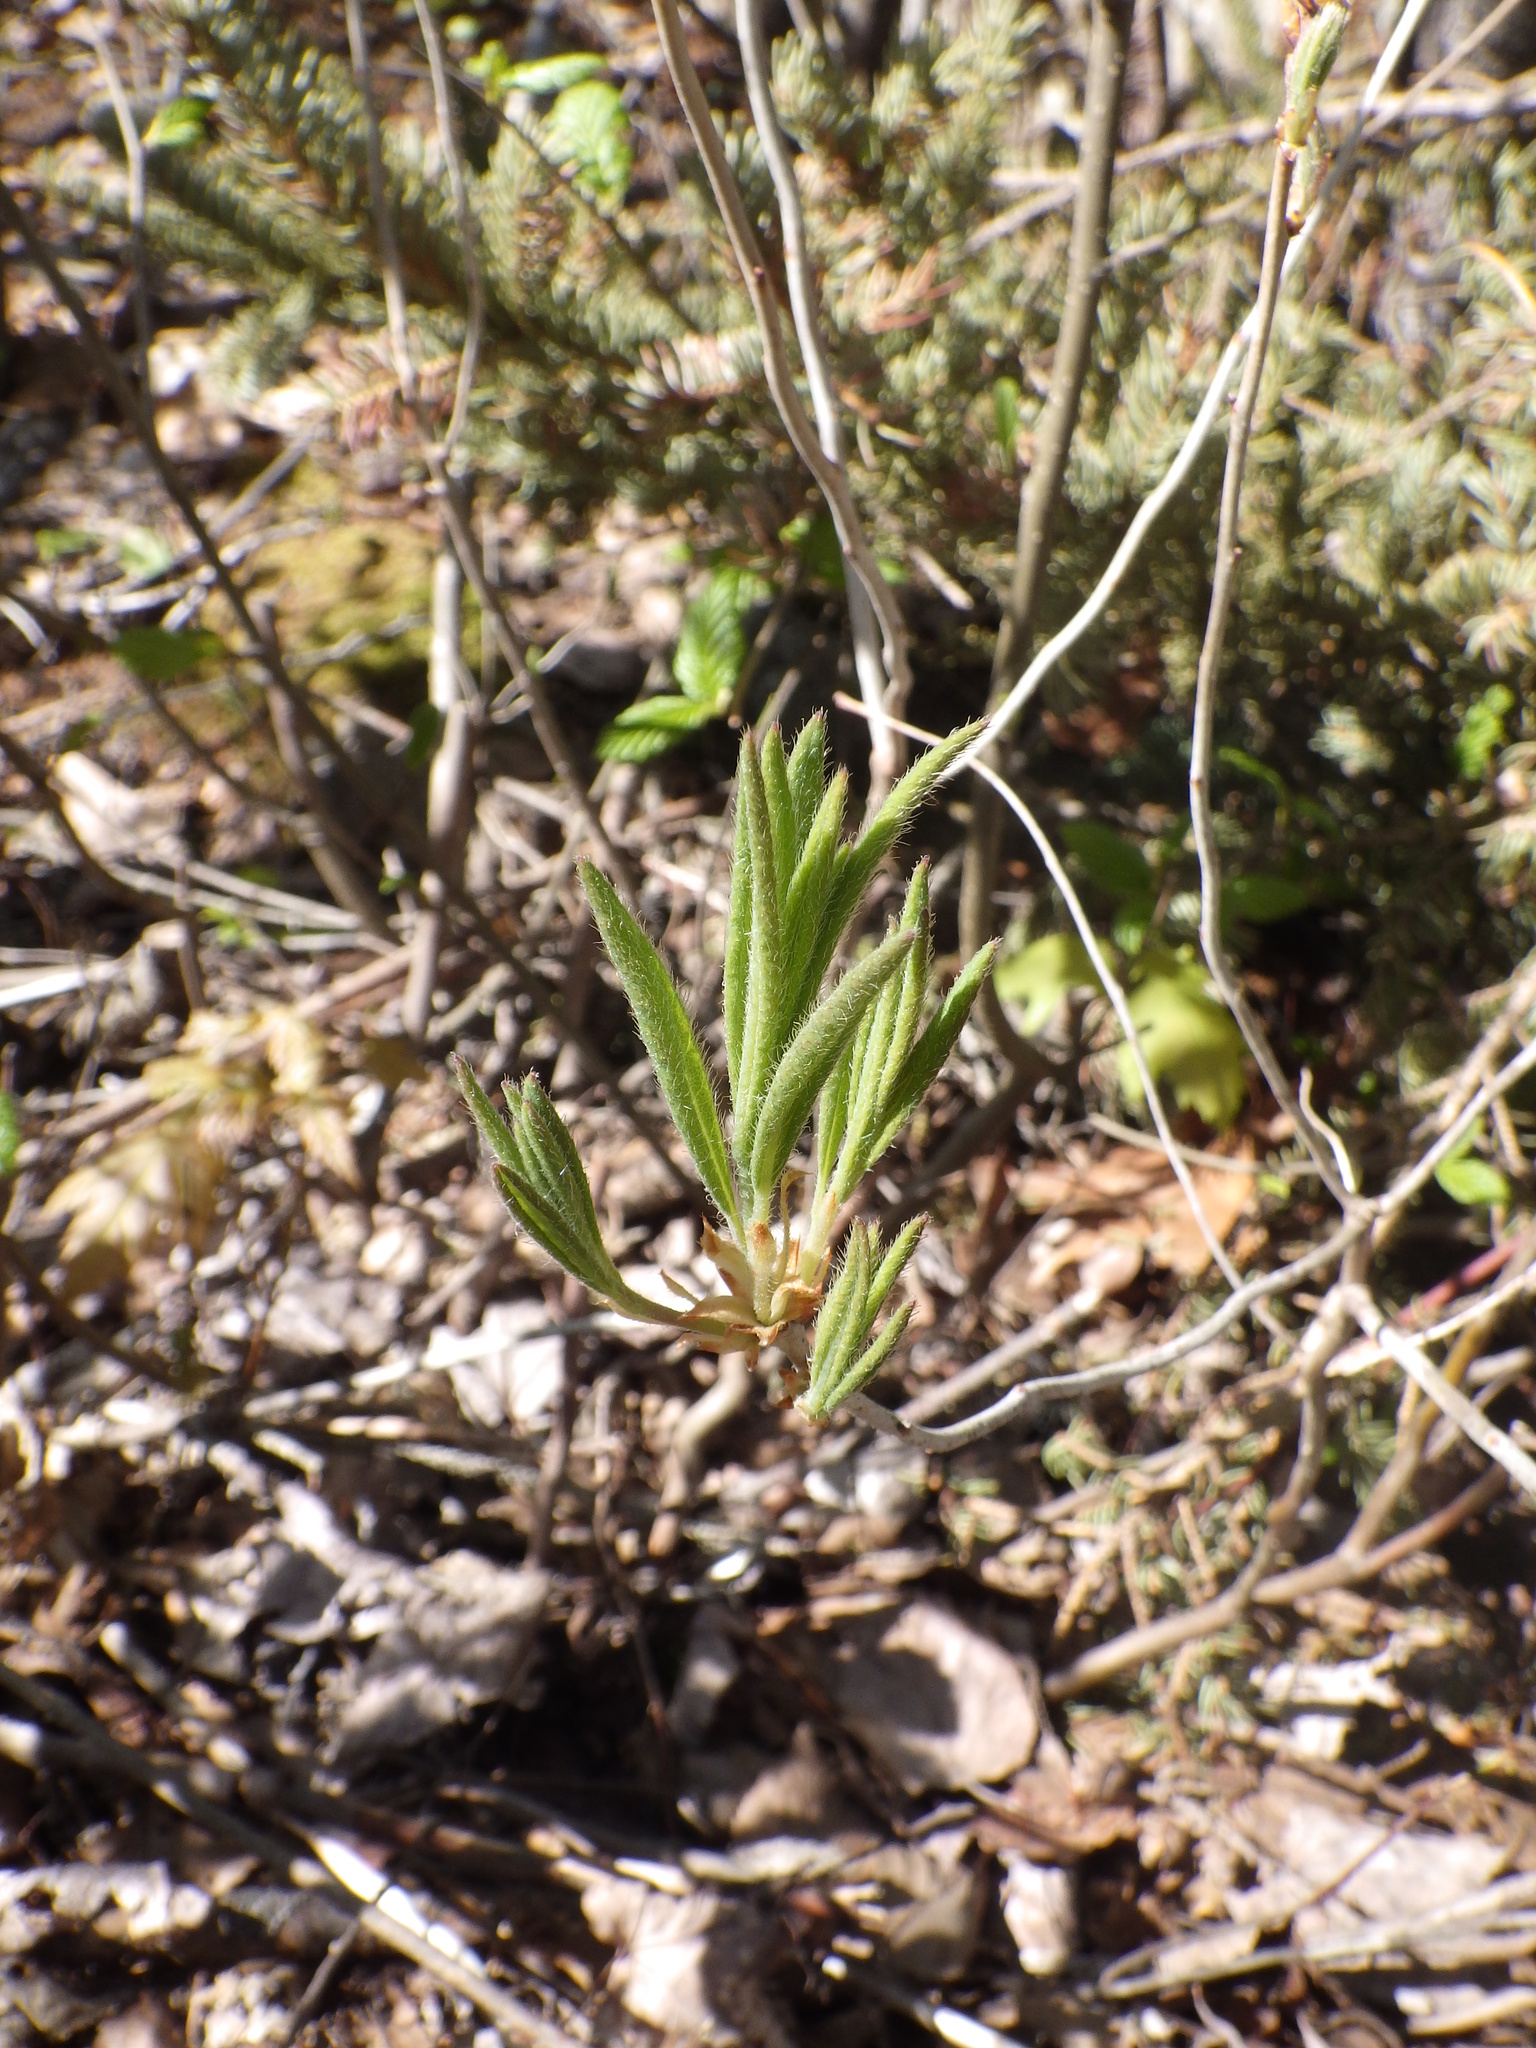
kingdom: Plantae
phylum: Tracheophyta
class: Magnoliopsida
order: Ericales
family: Ericaceae
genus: Rhododendron
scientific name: Rhododendron canadense
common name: Rhodora
